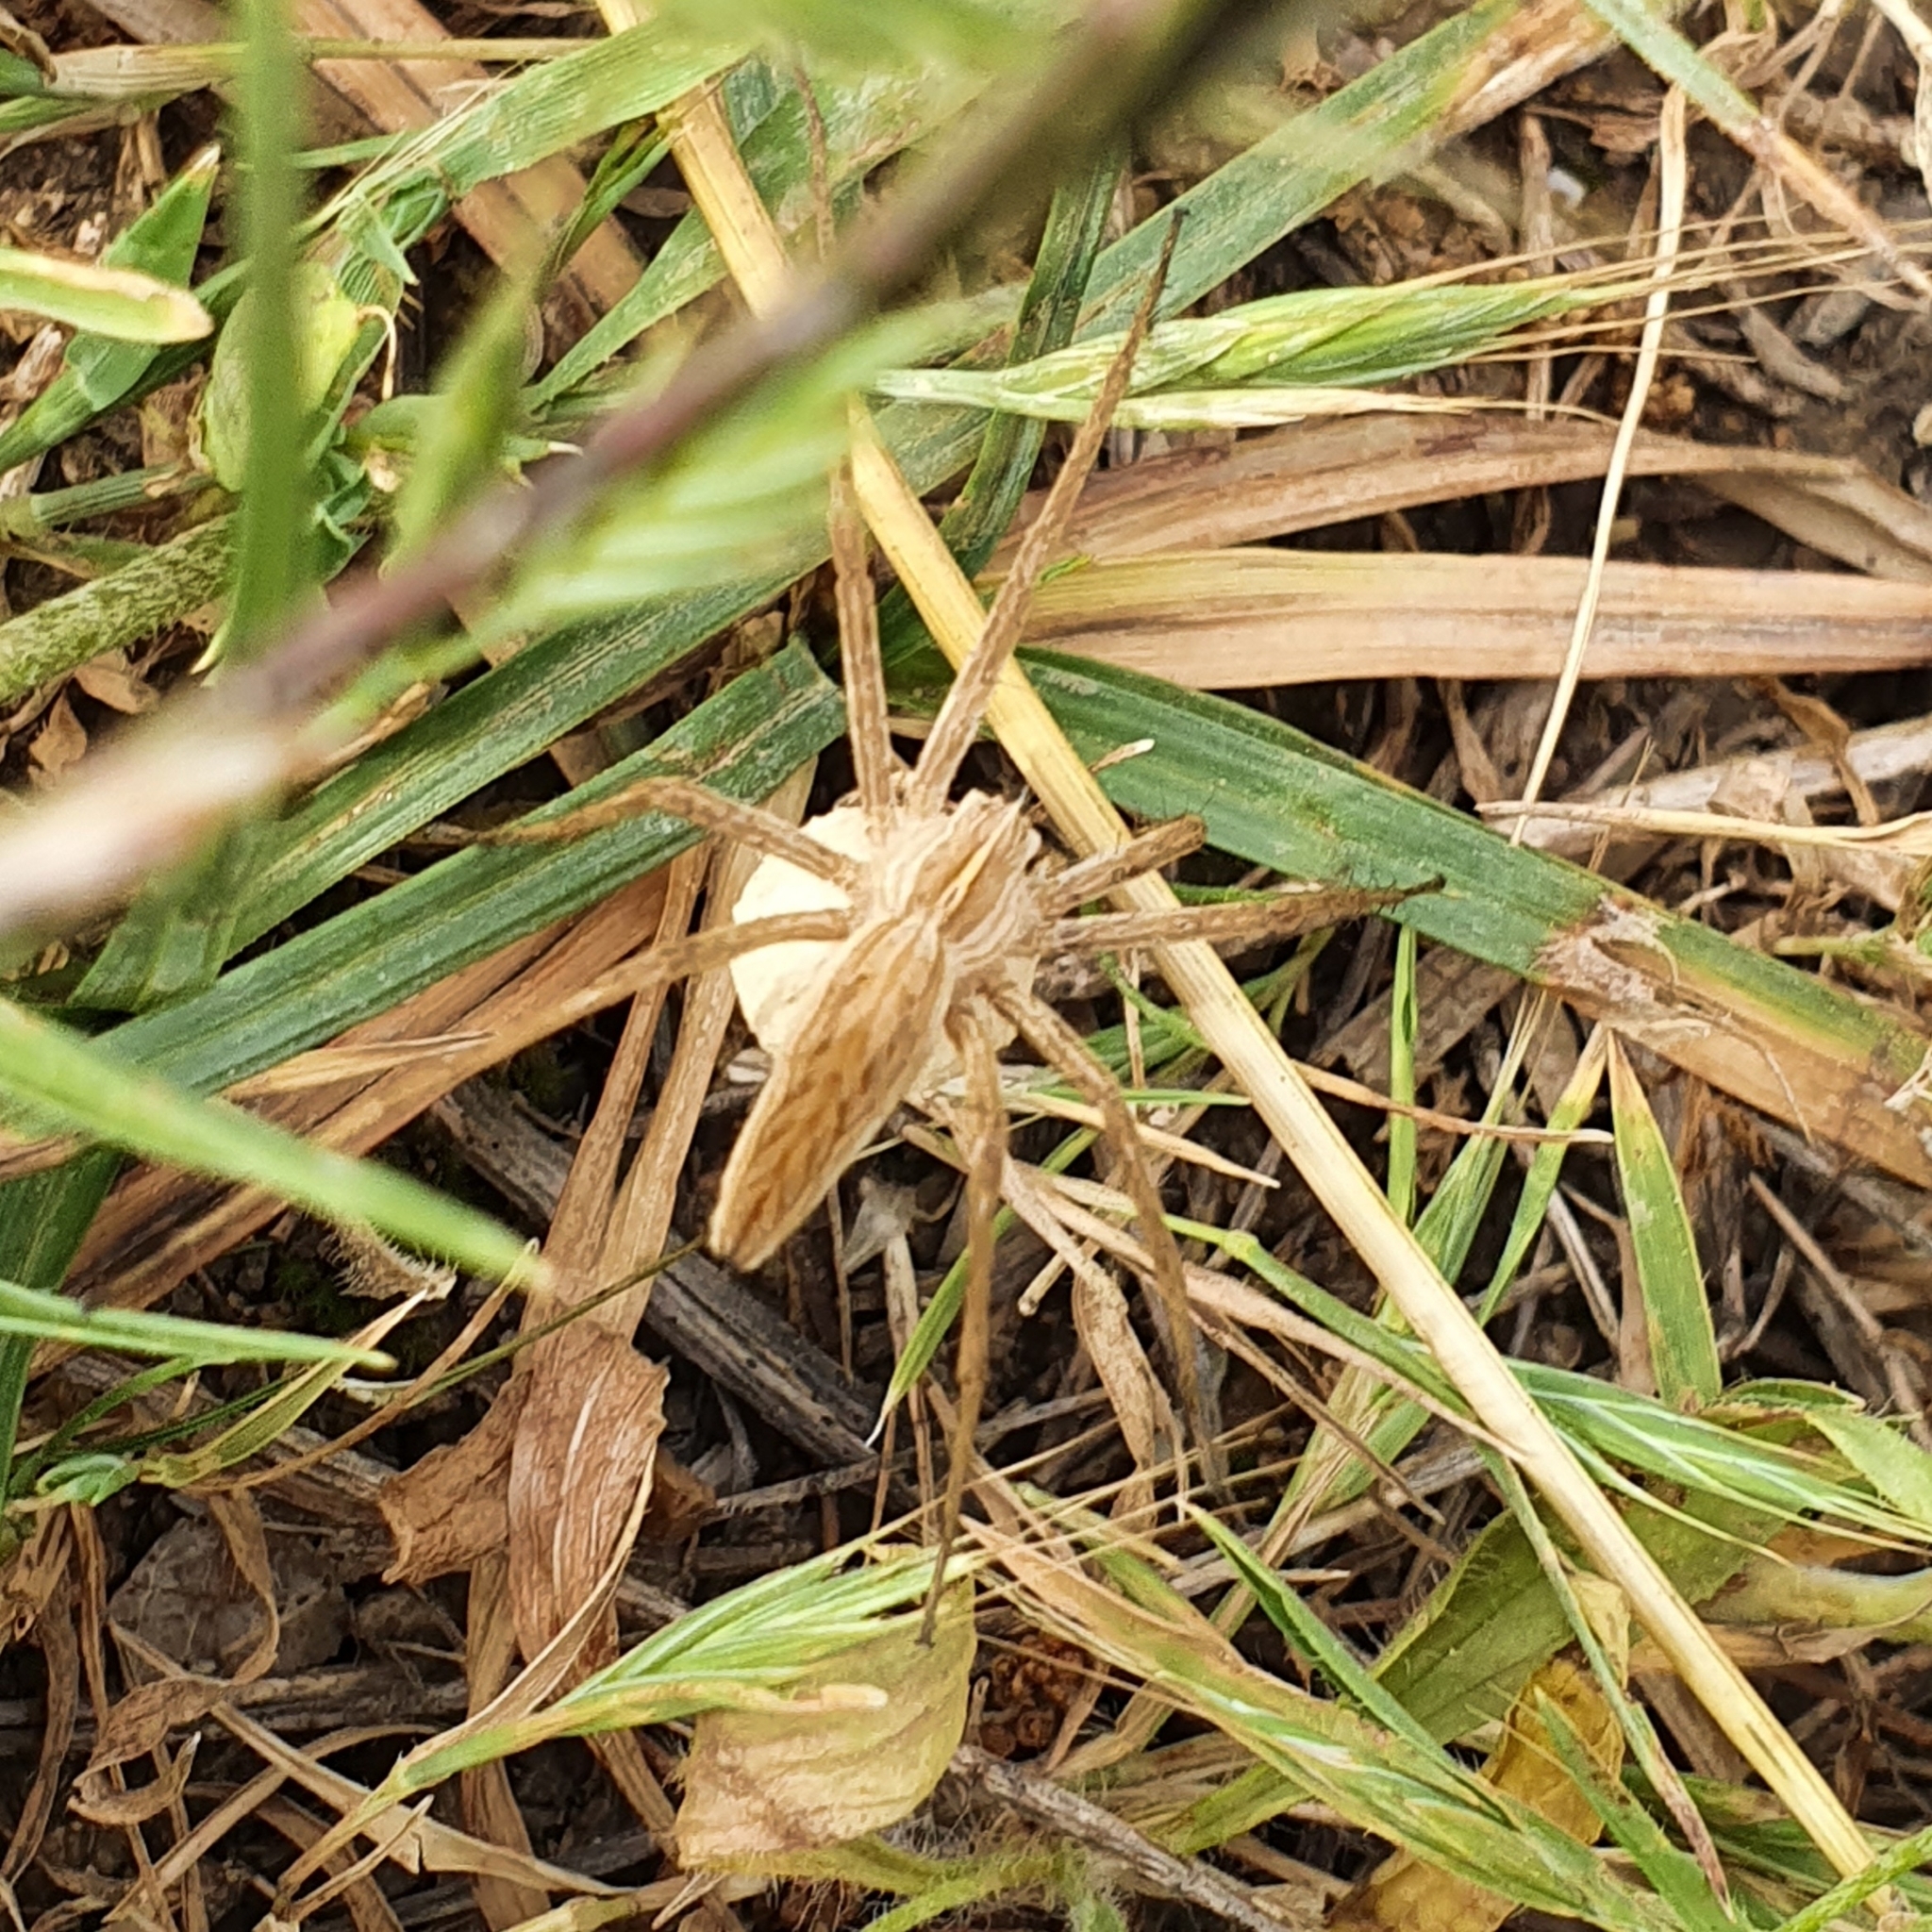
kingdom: Animalia
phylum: Arthropoda
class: Arachnida
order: Araneae
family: Pisauridae
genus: Pisaura
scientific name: Pisaura mirabilis
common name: Tent spider
